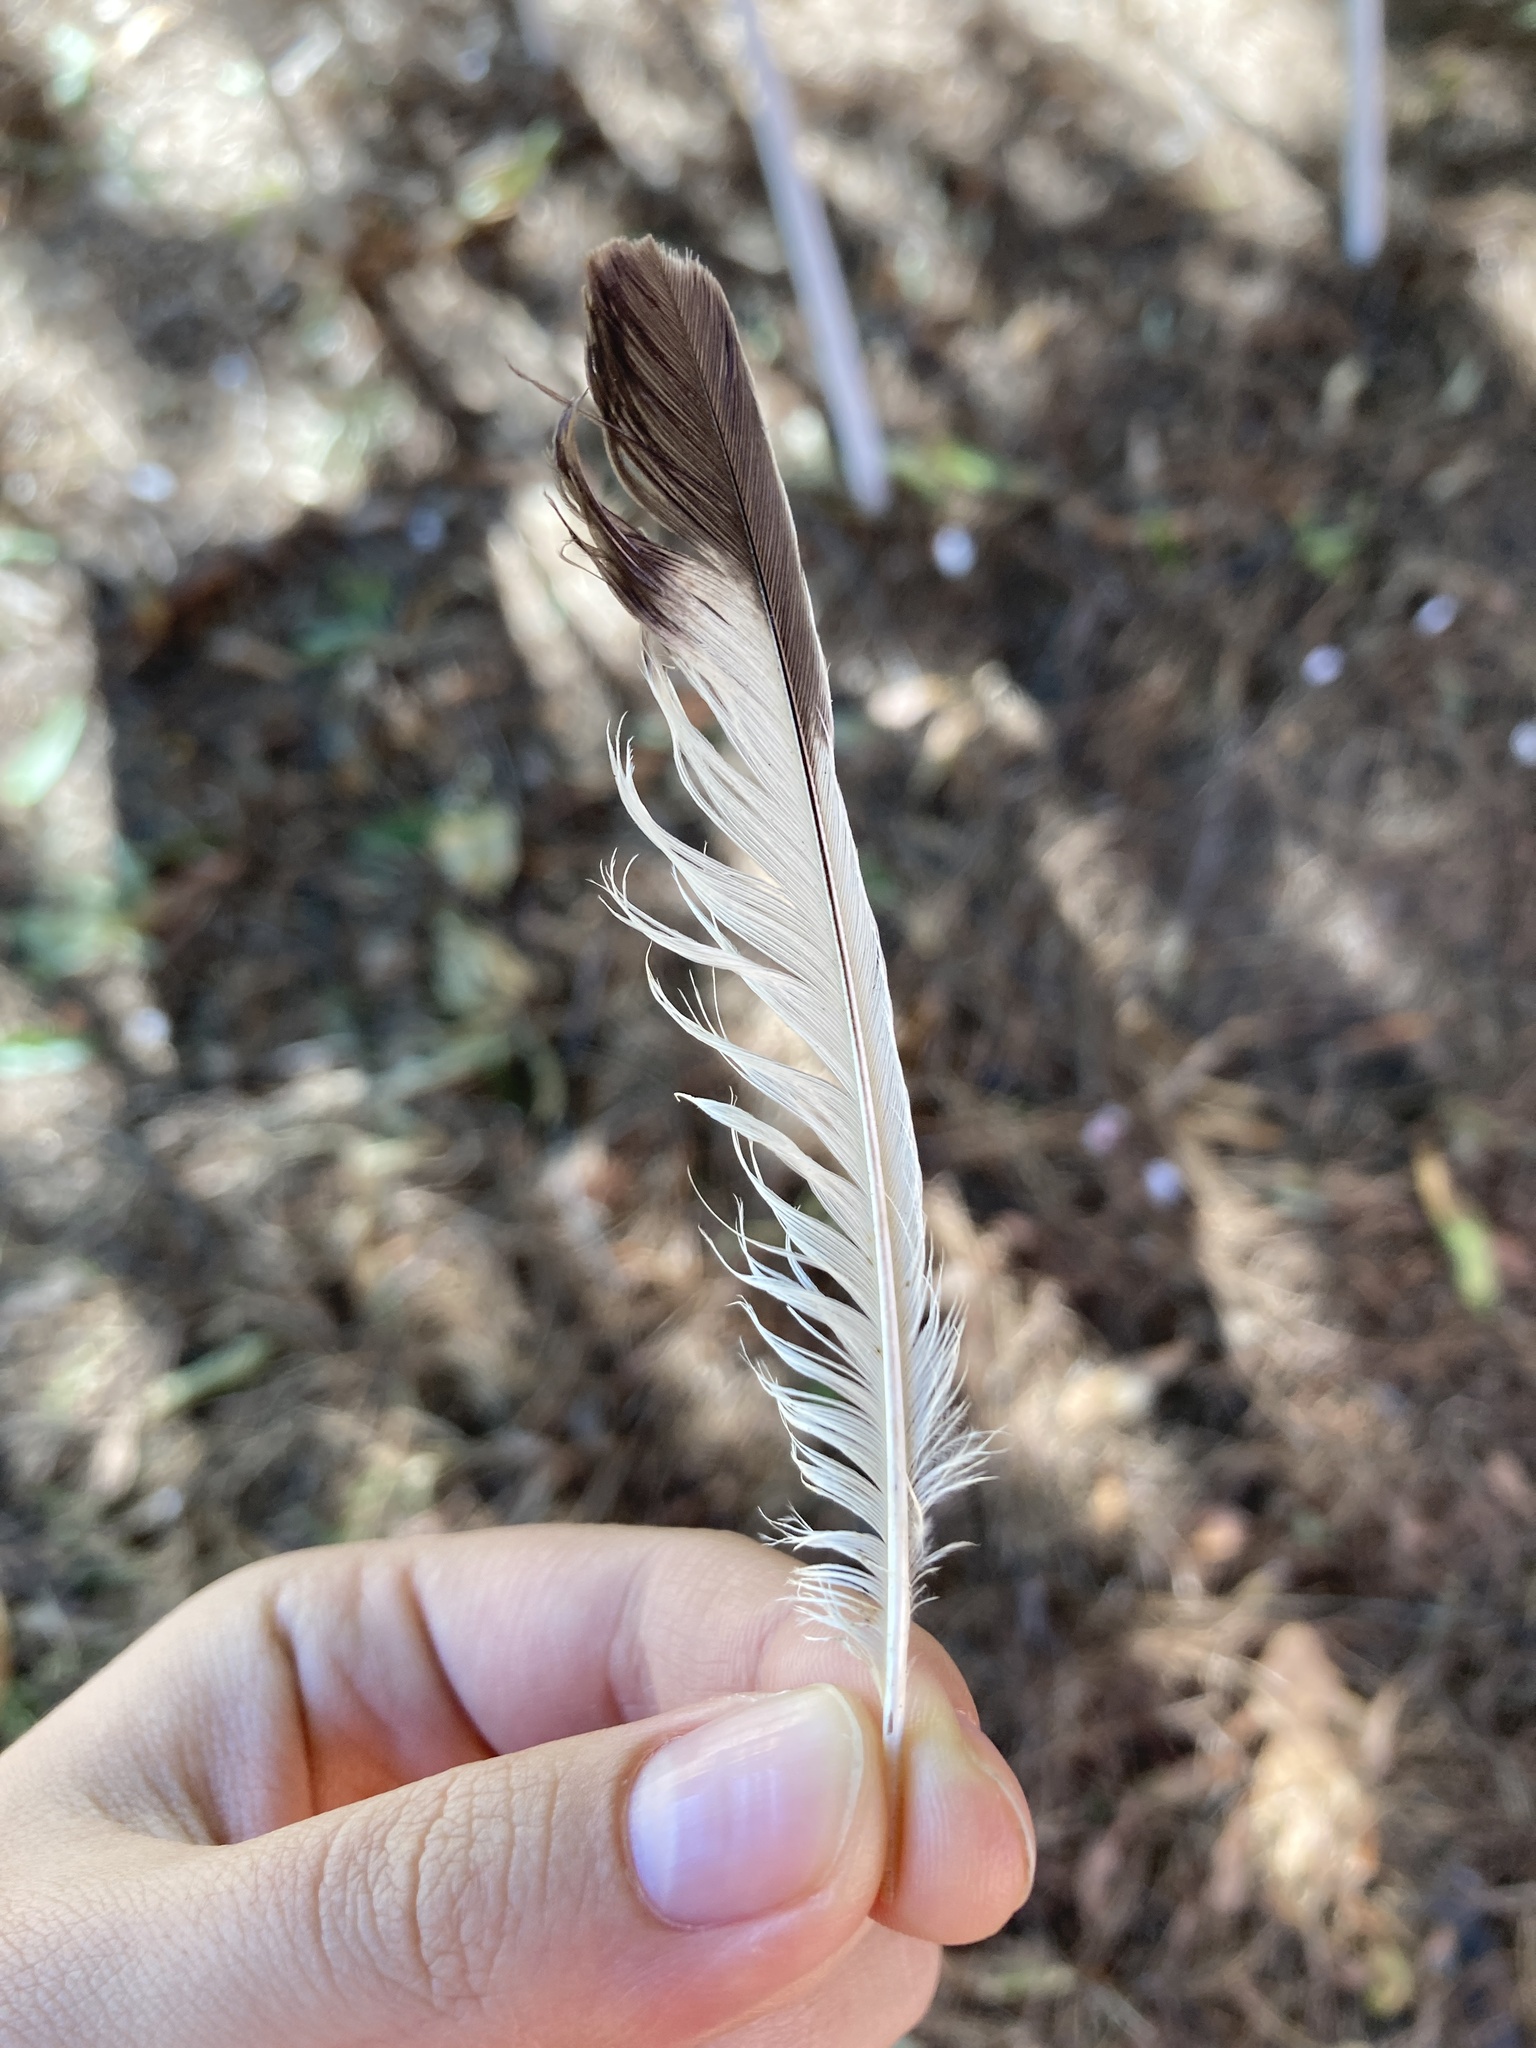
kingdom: Animalia
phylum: Chordata
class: Aves
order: Passeriformes
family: Mimidae
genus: Mimus
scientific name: Mimus polyglottos
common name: Northern mockingbird
